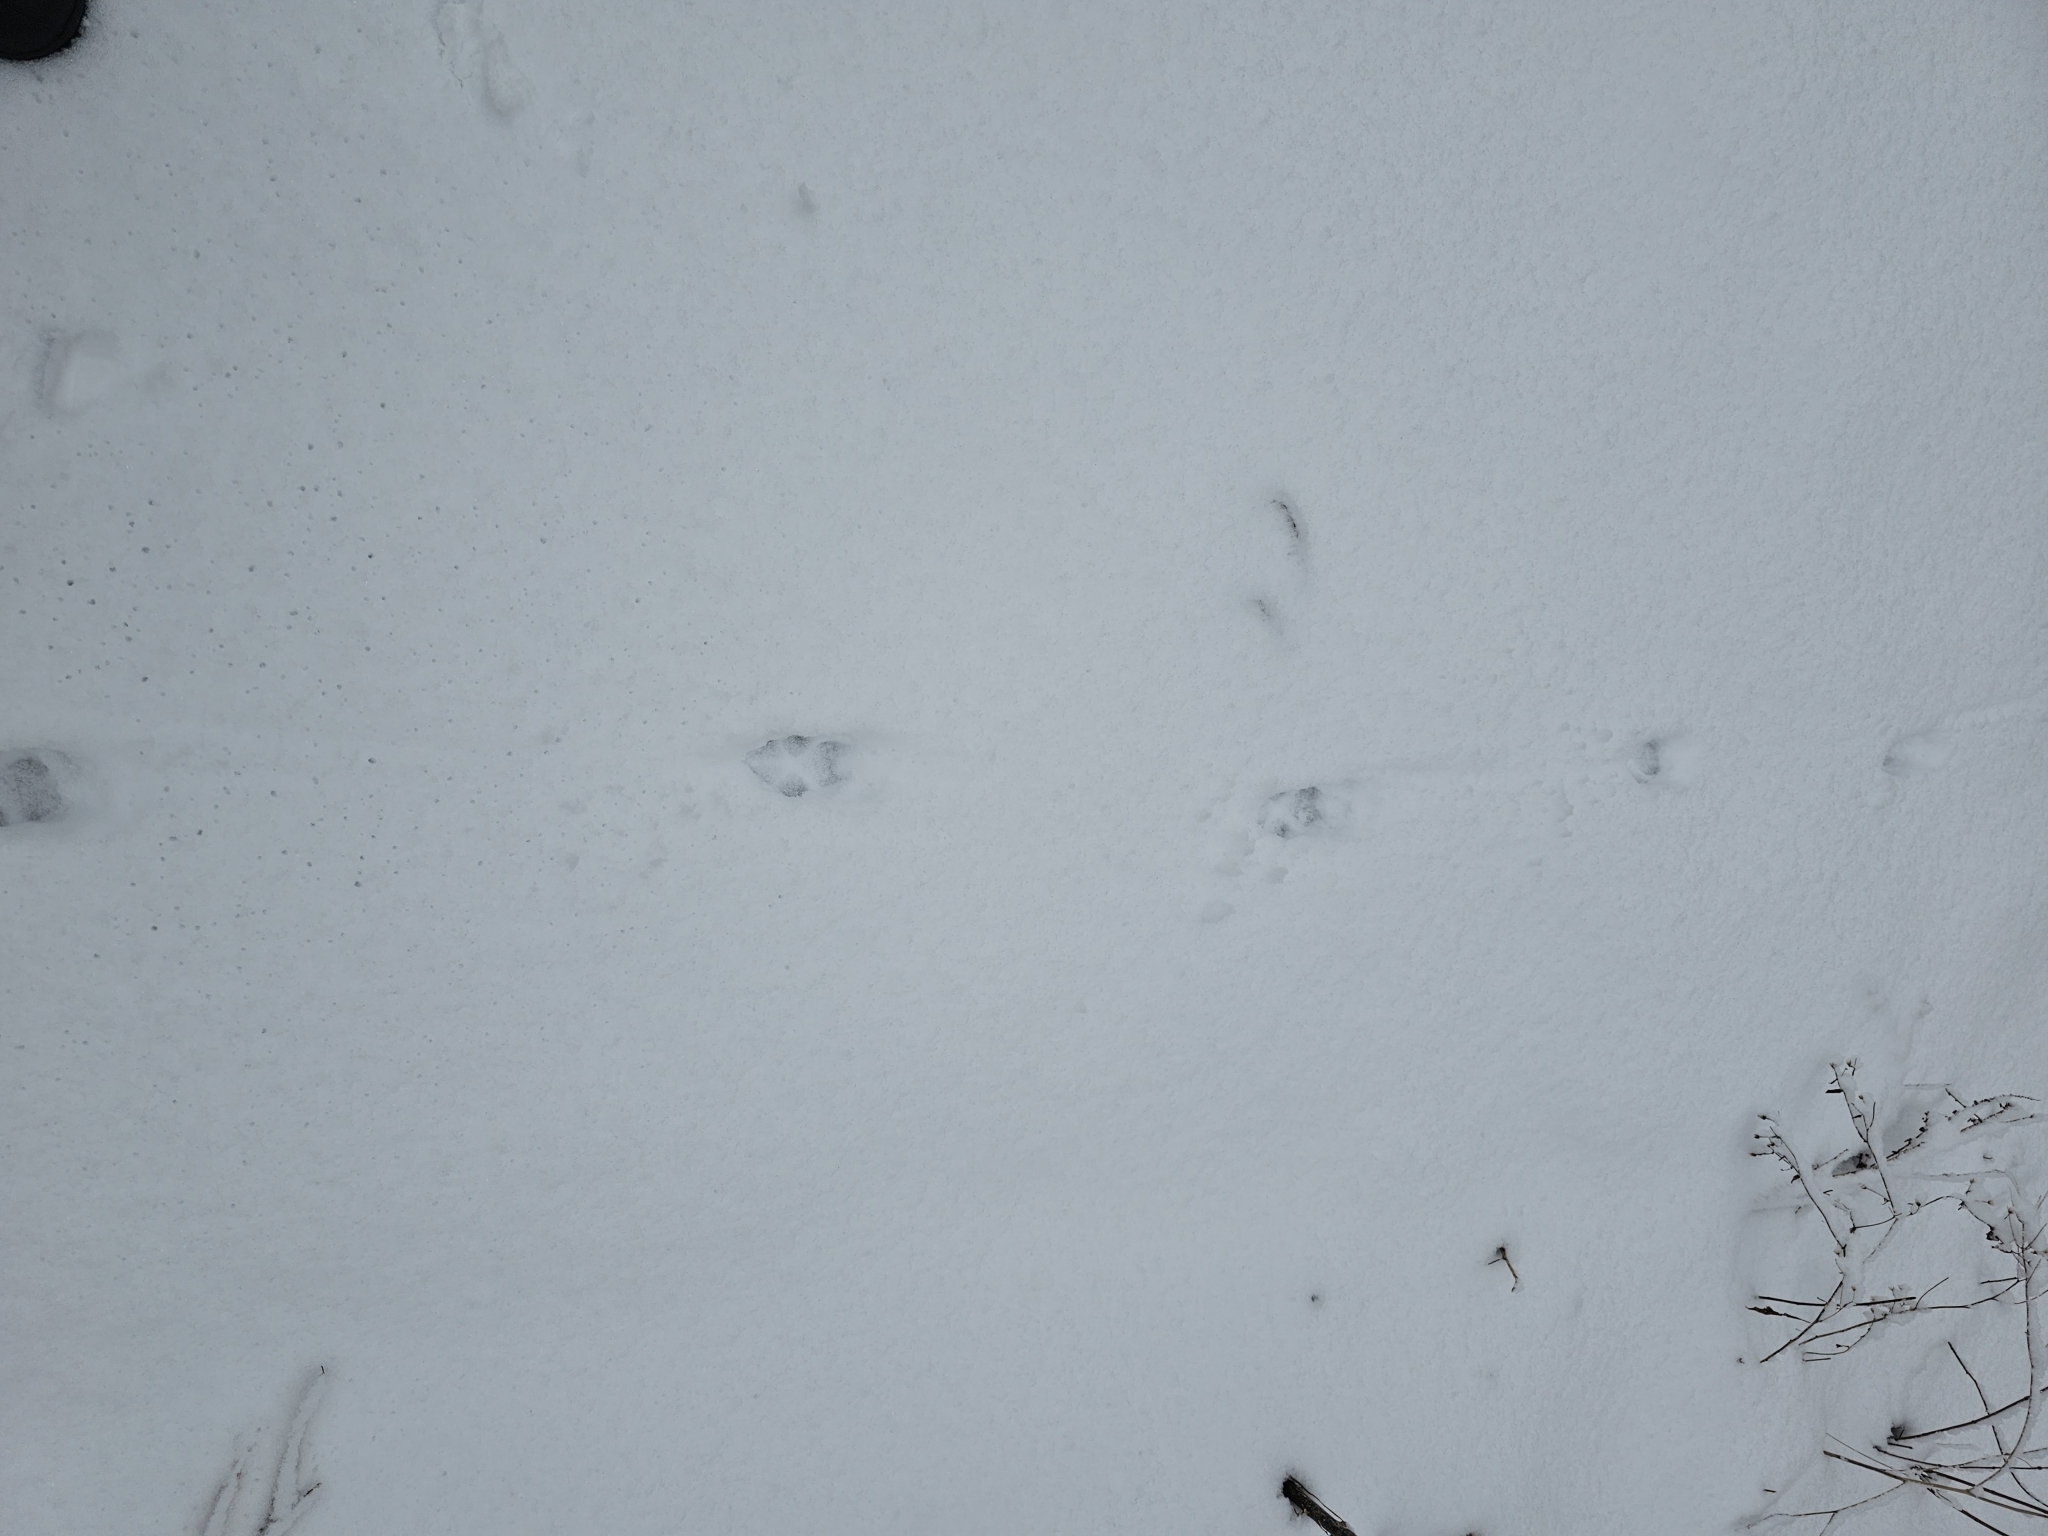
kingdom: Animalia
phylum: Chordata
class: Mammalia
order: Carnivora
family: Canidae
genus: Canis
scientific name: Canis latrans
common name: Coyote
